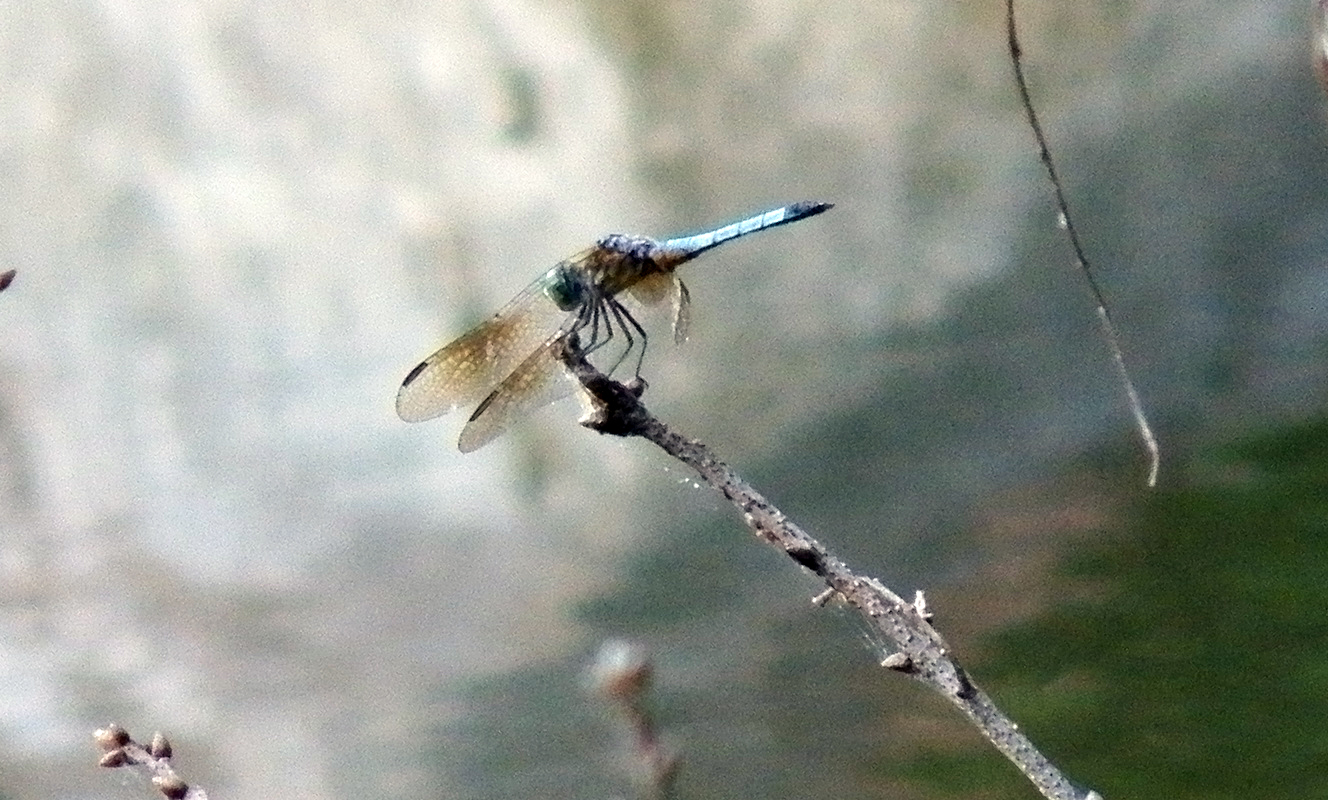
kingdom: Animalia
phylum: Arthropoda
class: Insecta
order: Odonata
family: Libellulidae
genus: Pachydiplax
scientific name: Pachydiplax longipennis
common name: Blue dasher
